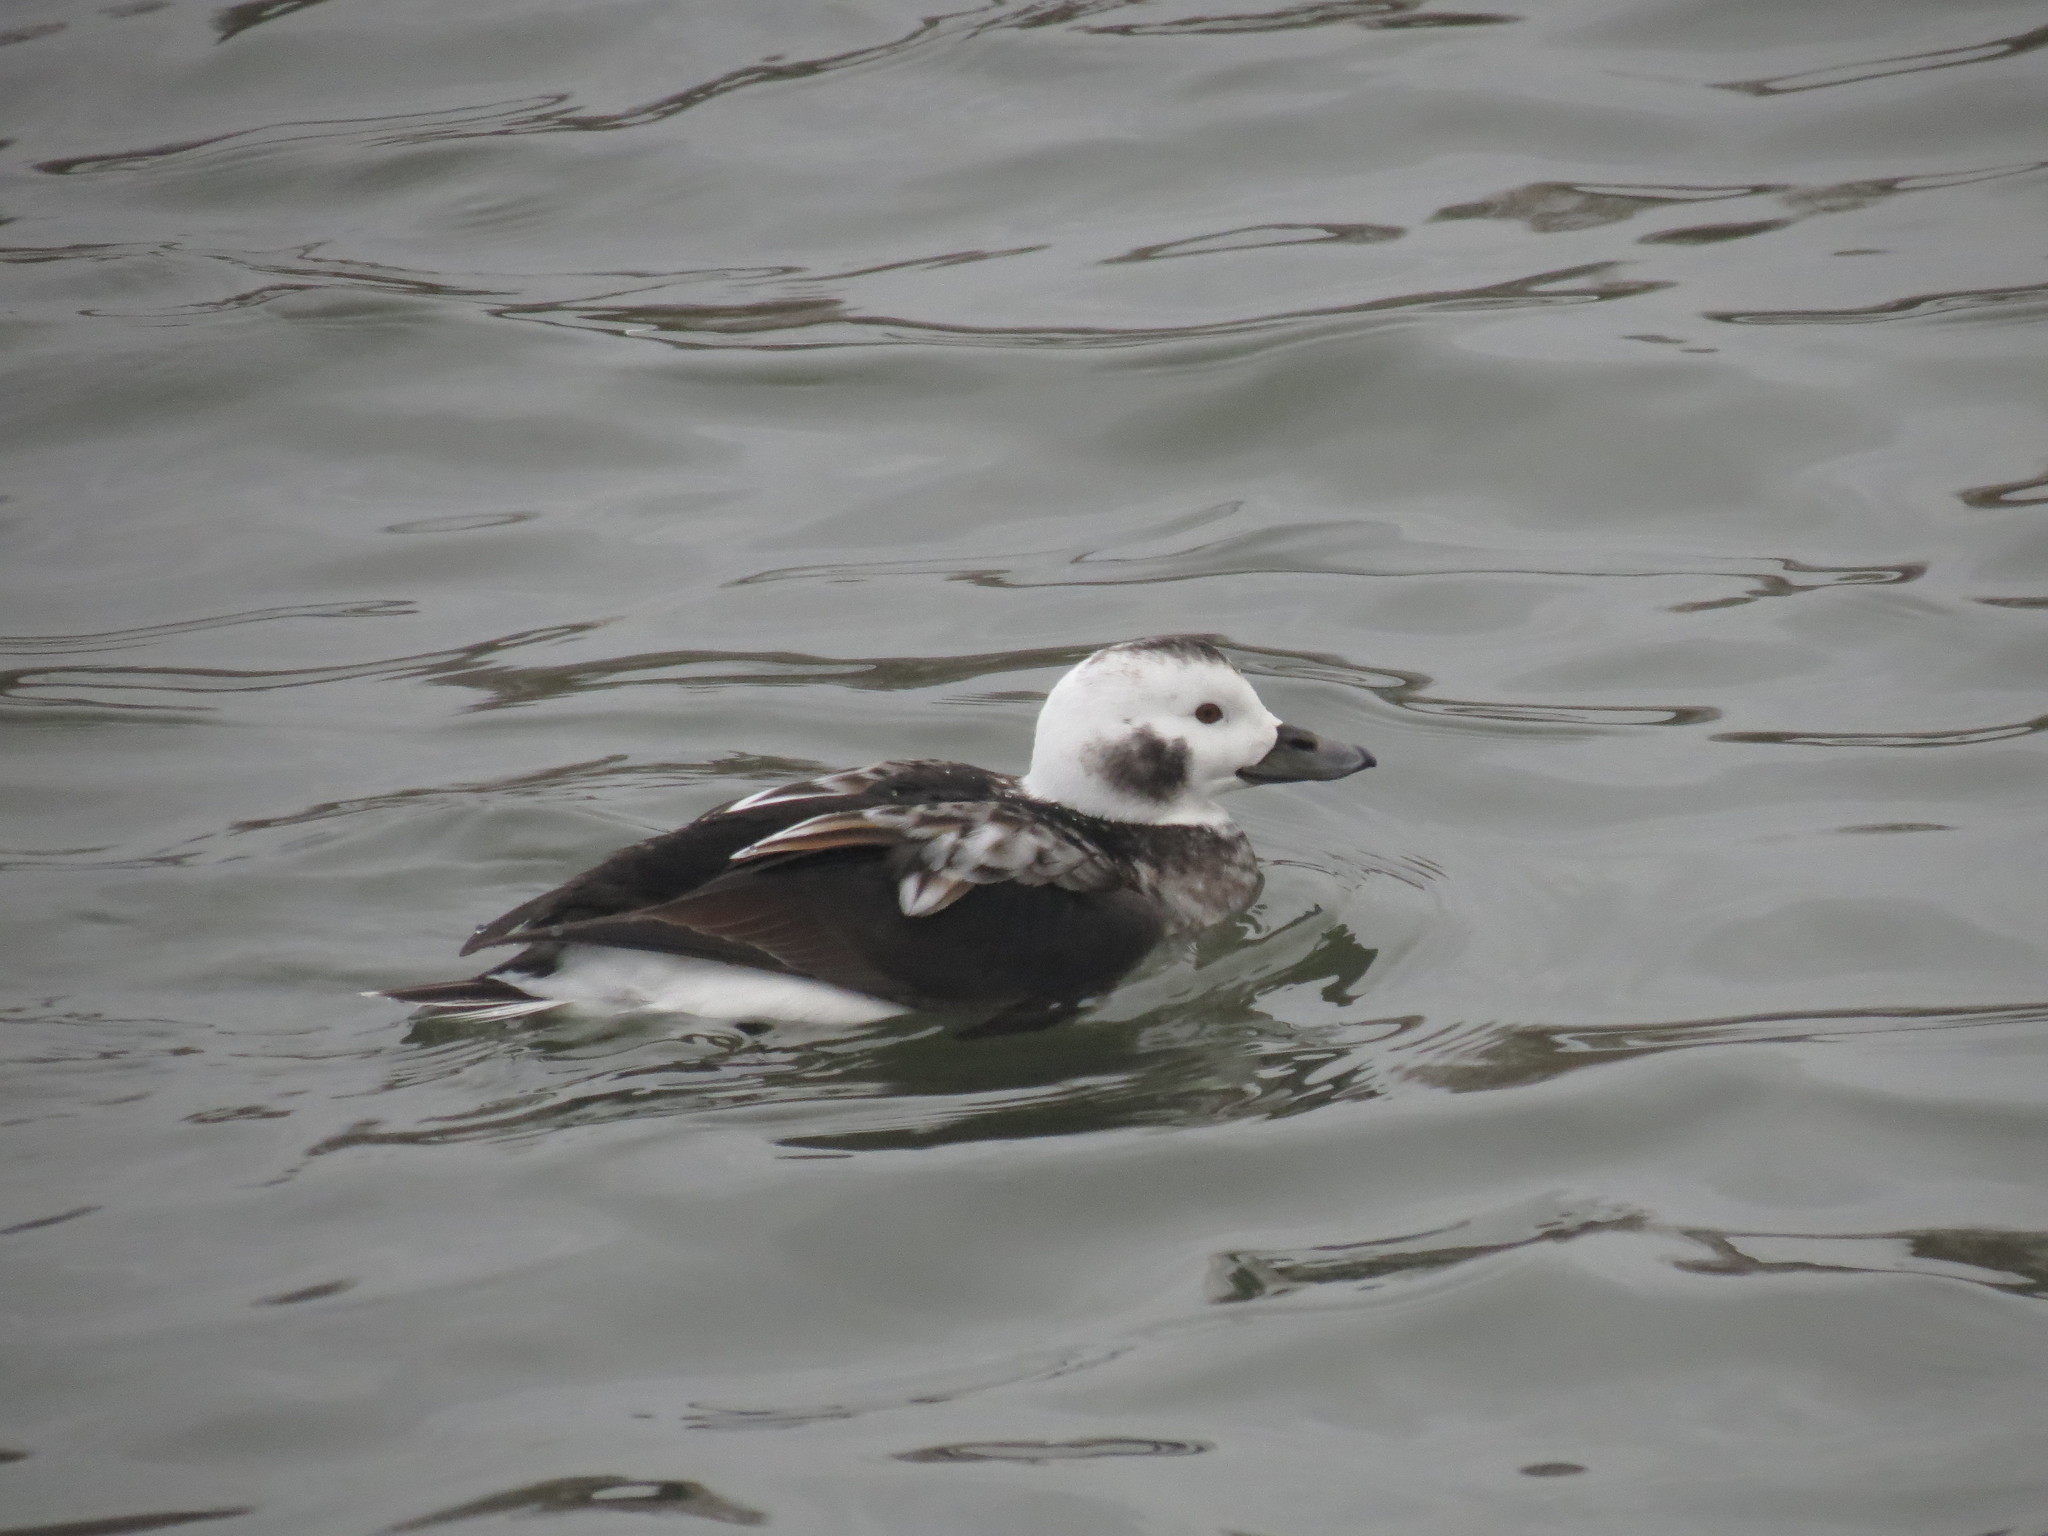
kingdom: Animalia
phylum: Chordata
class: Aves
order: Anseriformes
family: Anatidae
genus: Clangula
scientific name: Clangula hyemalis
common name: Long-tailed duck
